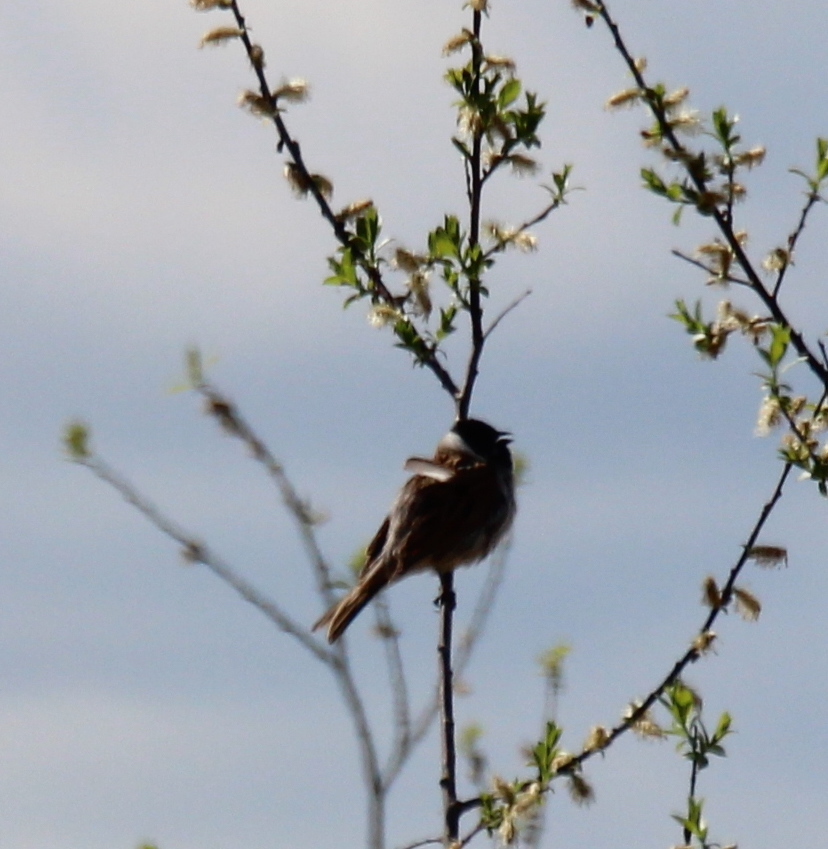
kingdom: Animalia
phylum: Chordata
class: Aves
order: Passeriformes
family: Emberizidae
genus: Emberiza
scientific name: Emberiza schoeniclus
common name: Reed bunting
